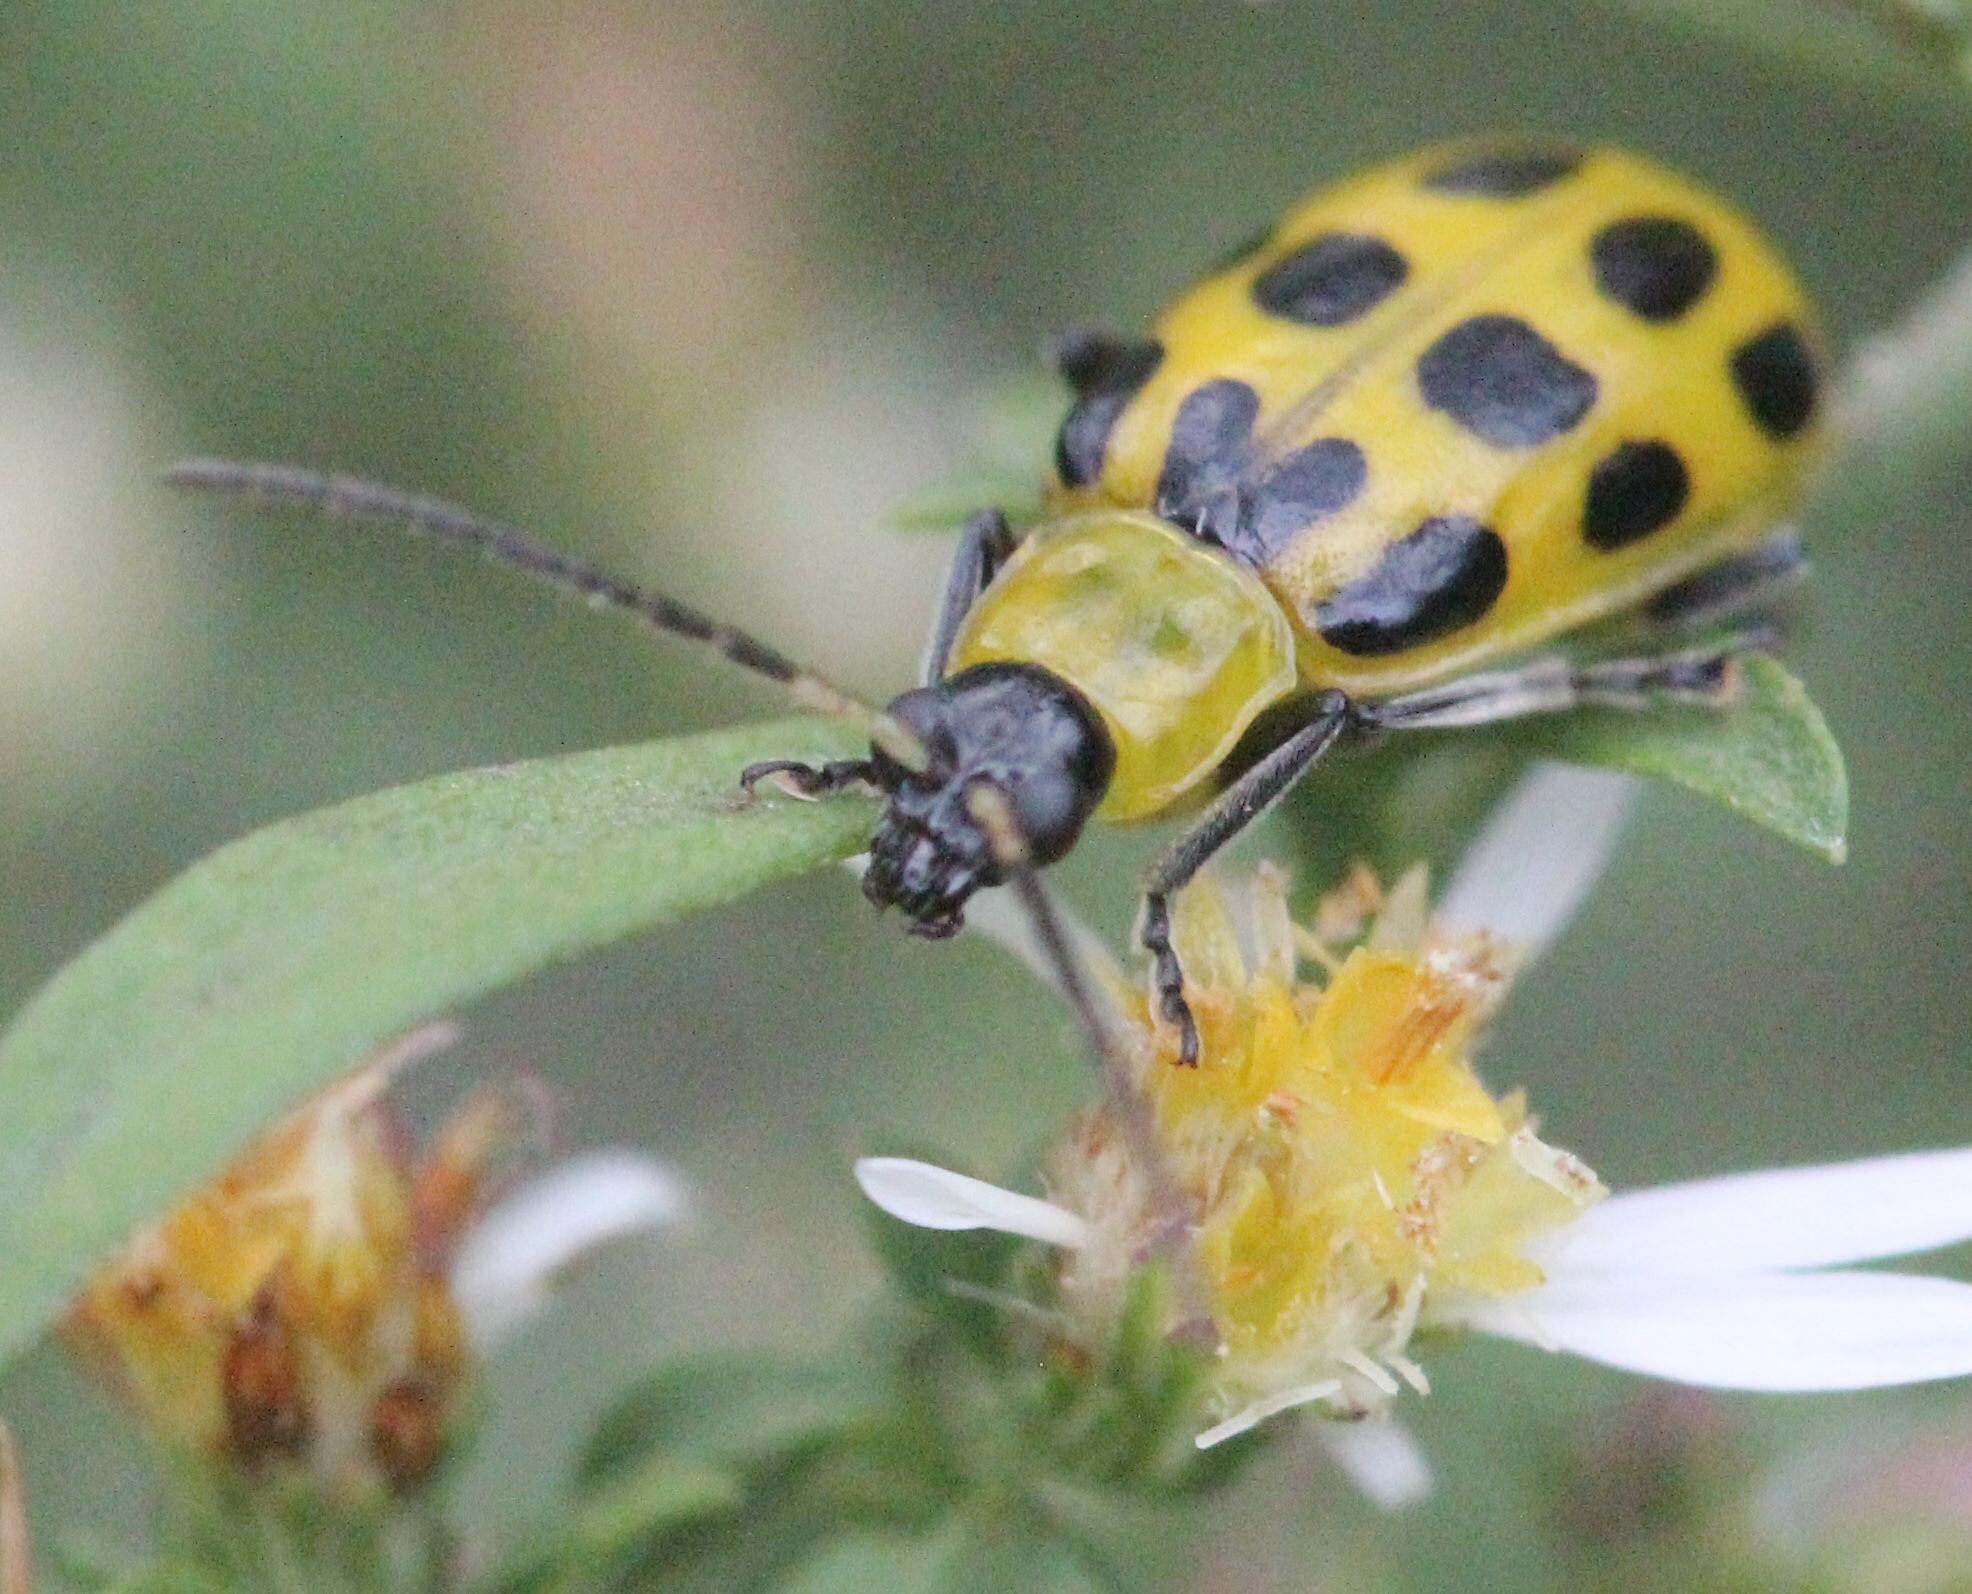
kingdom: Animalia
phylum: Arthropoda
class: Insecta
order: Coleoptera
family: Chrysomelidae
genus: Diabrotica
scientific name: Diabrotica undecimpunctata
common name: Spotted cucumber beetle
